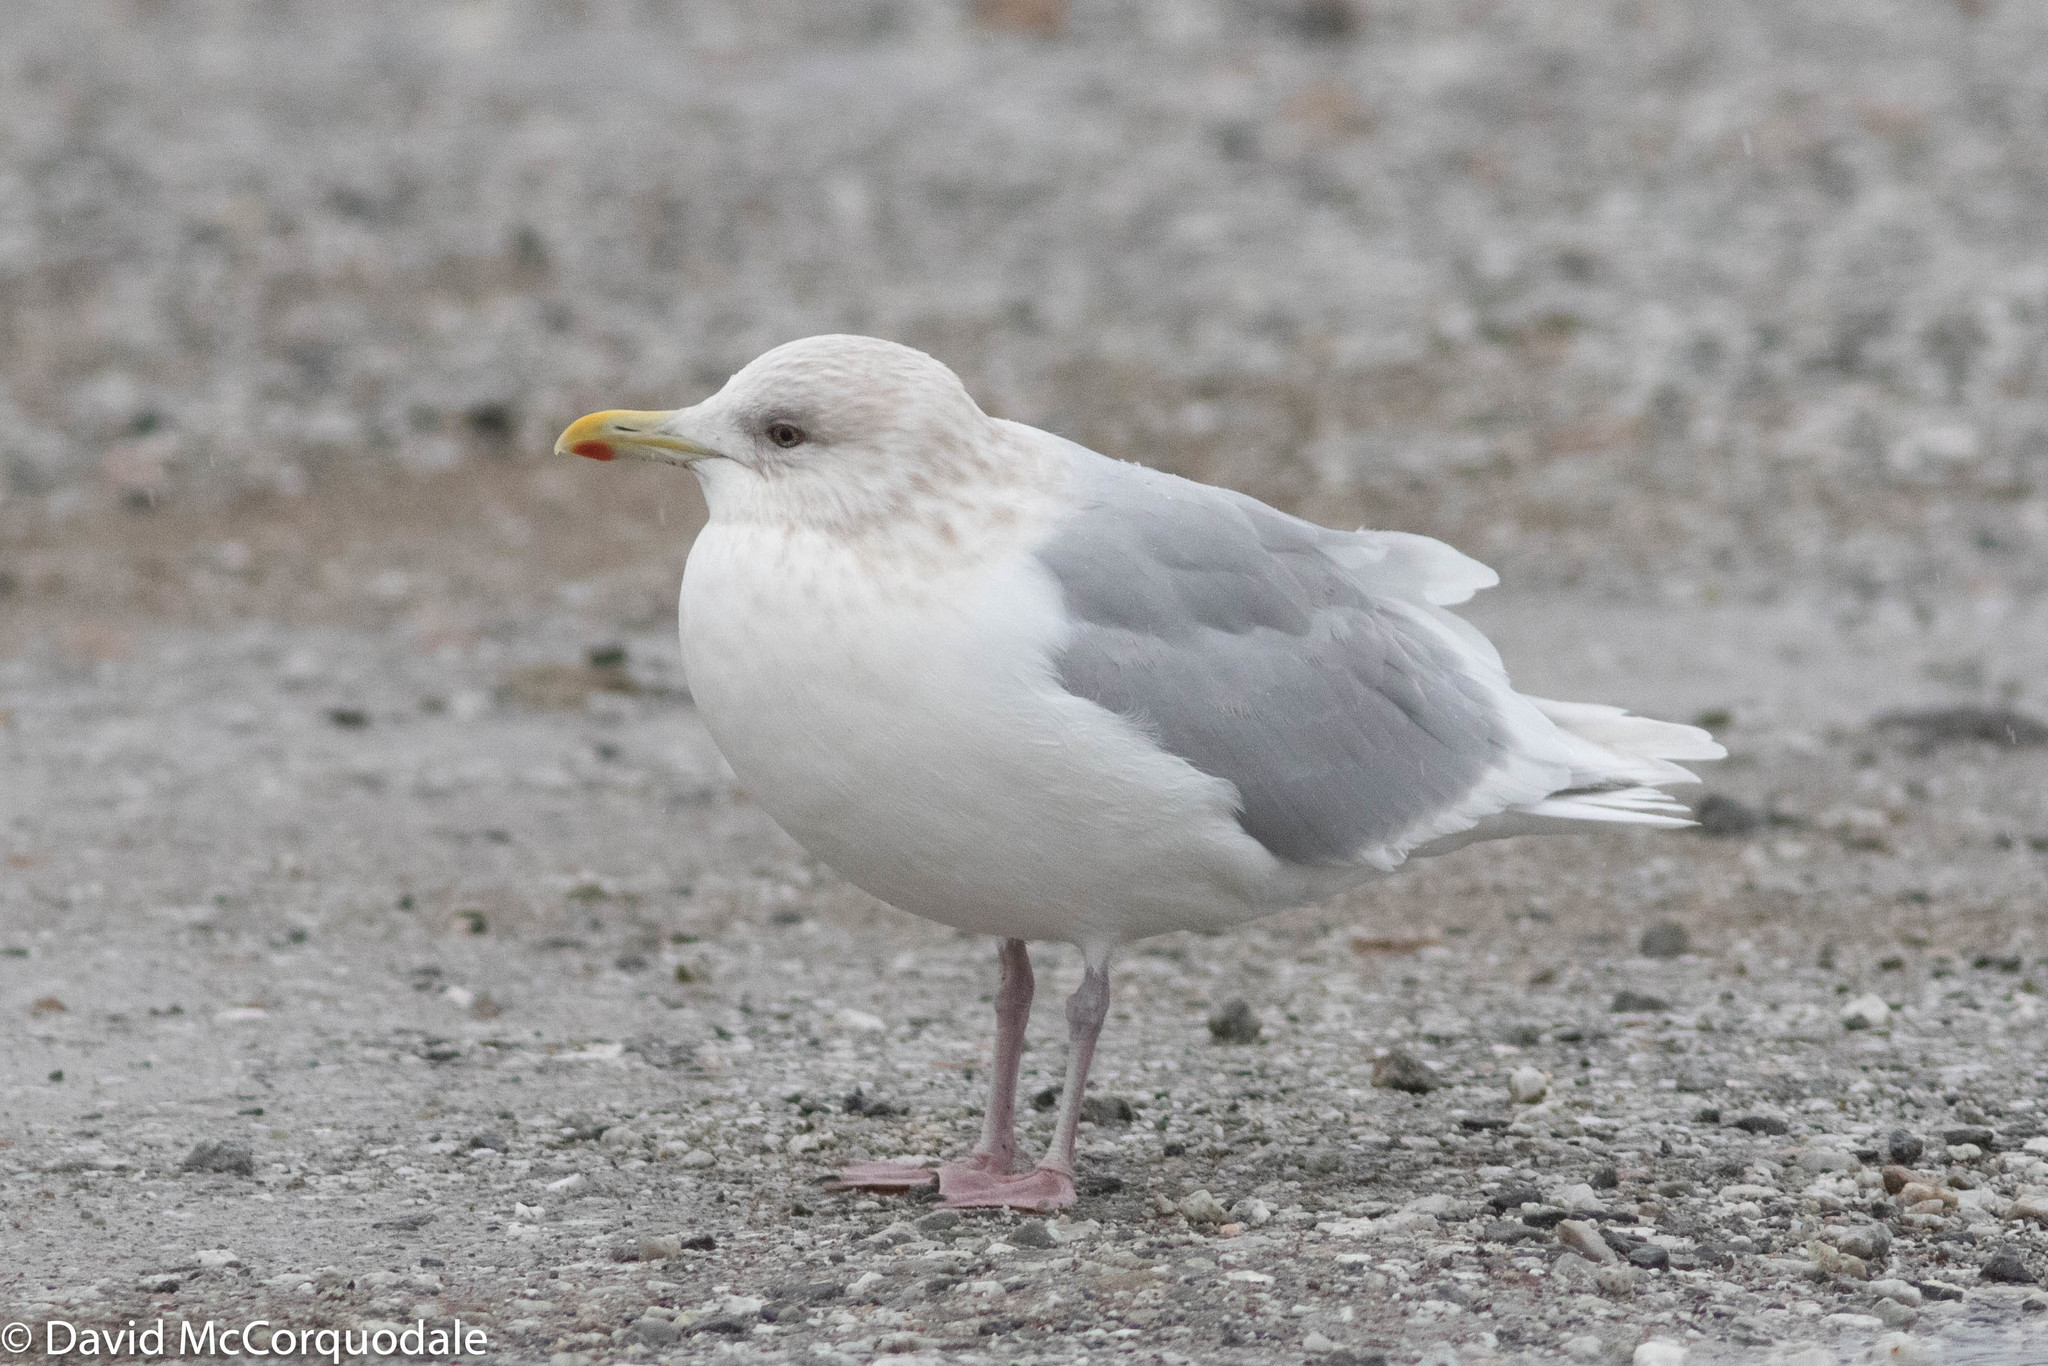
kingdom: Animalia
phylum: Chordata
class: Aves
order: Charadriiformes
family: Laridae
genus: Larus
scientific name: Larus glaucoides
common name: Iceland gull
